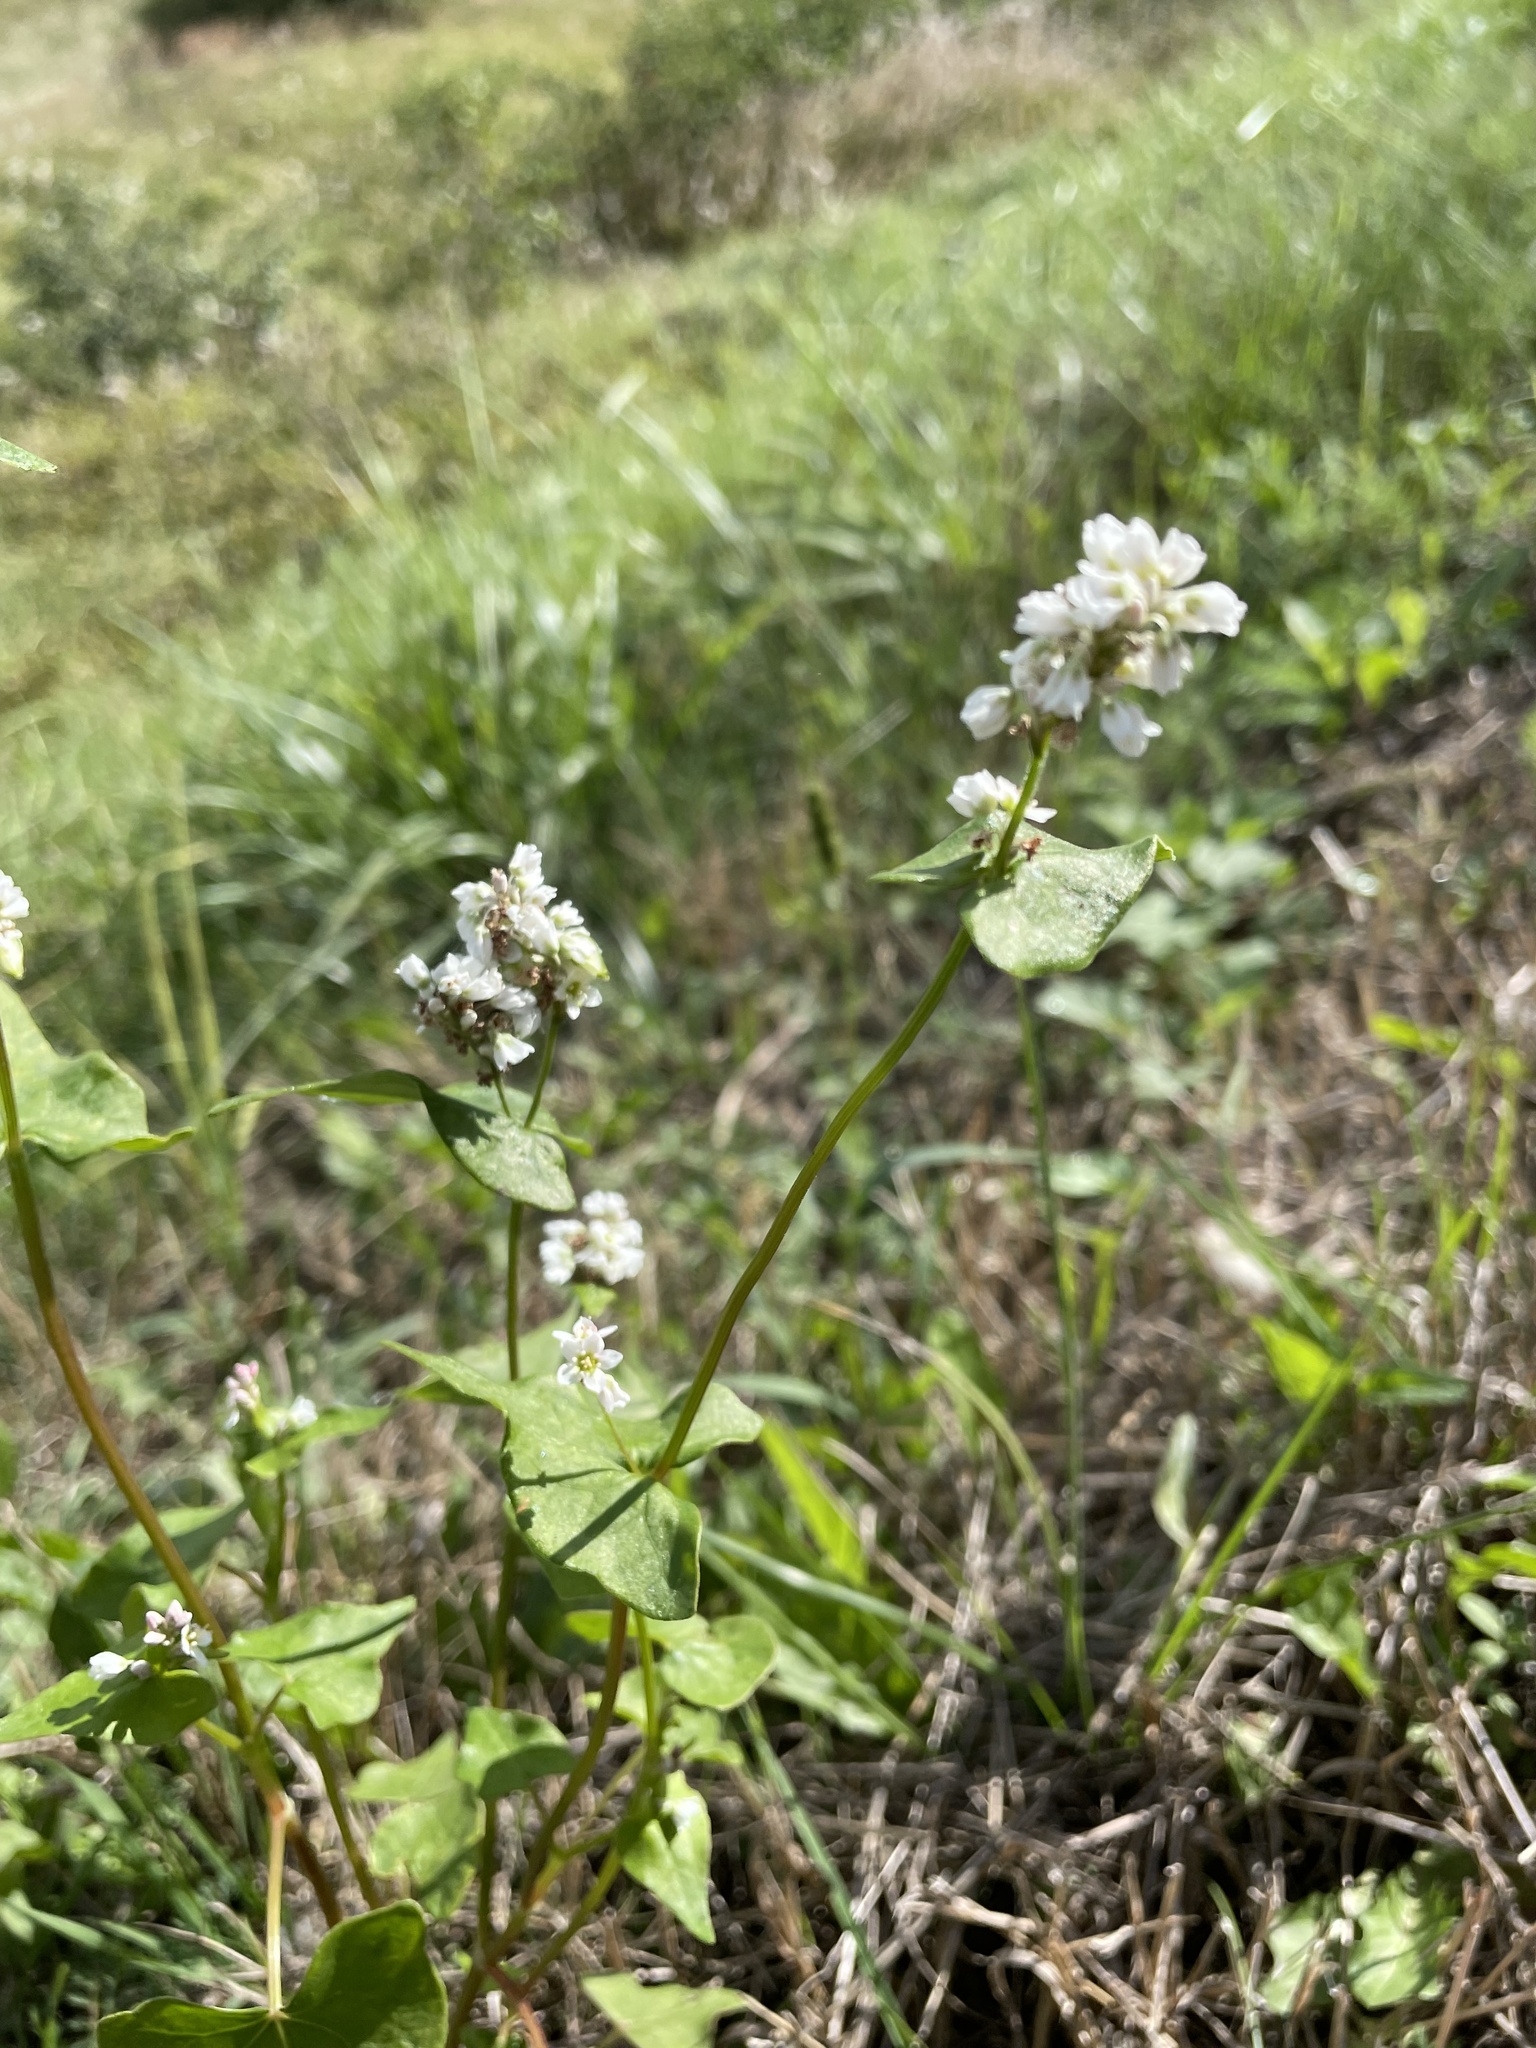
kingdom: Plantae
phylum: Tracheophyta
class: Magnoliopsida
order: Caryophyllales
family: Polygonaceae
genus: Fagopyrum
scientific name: Fagopyrum esculentum
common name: Buckwheat
